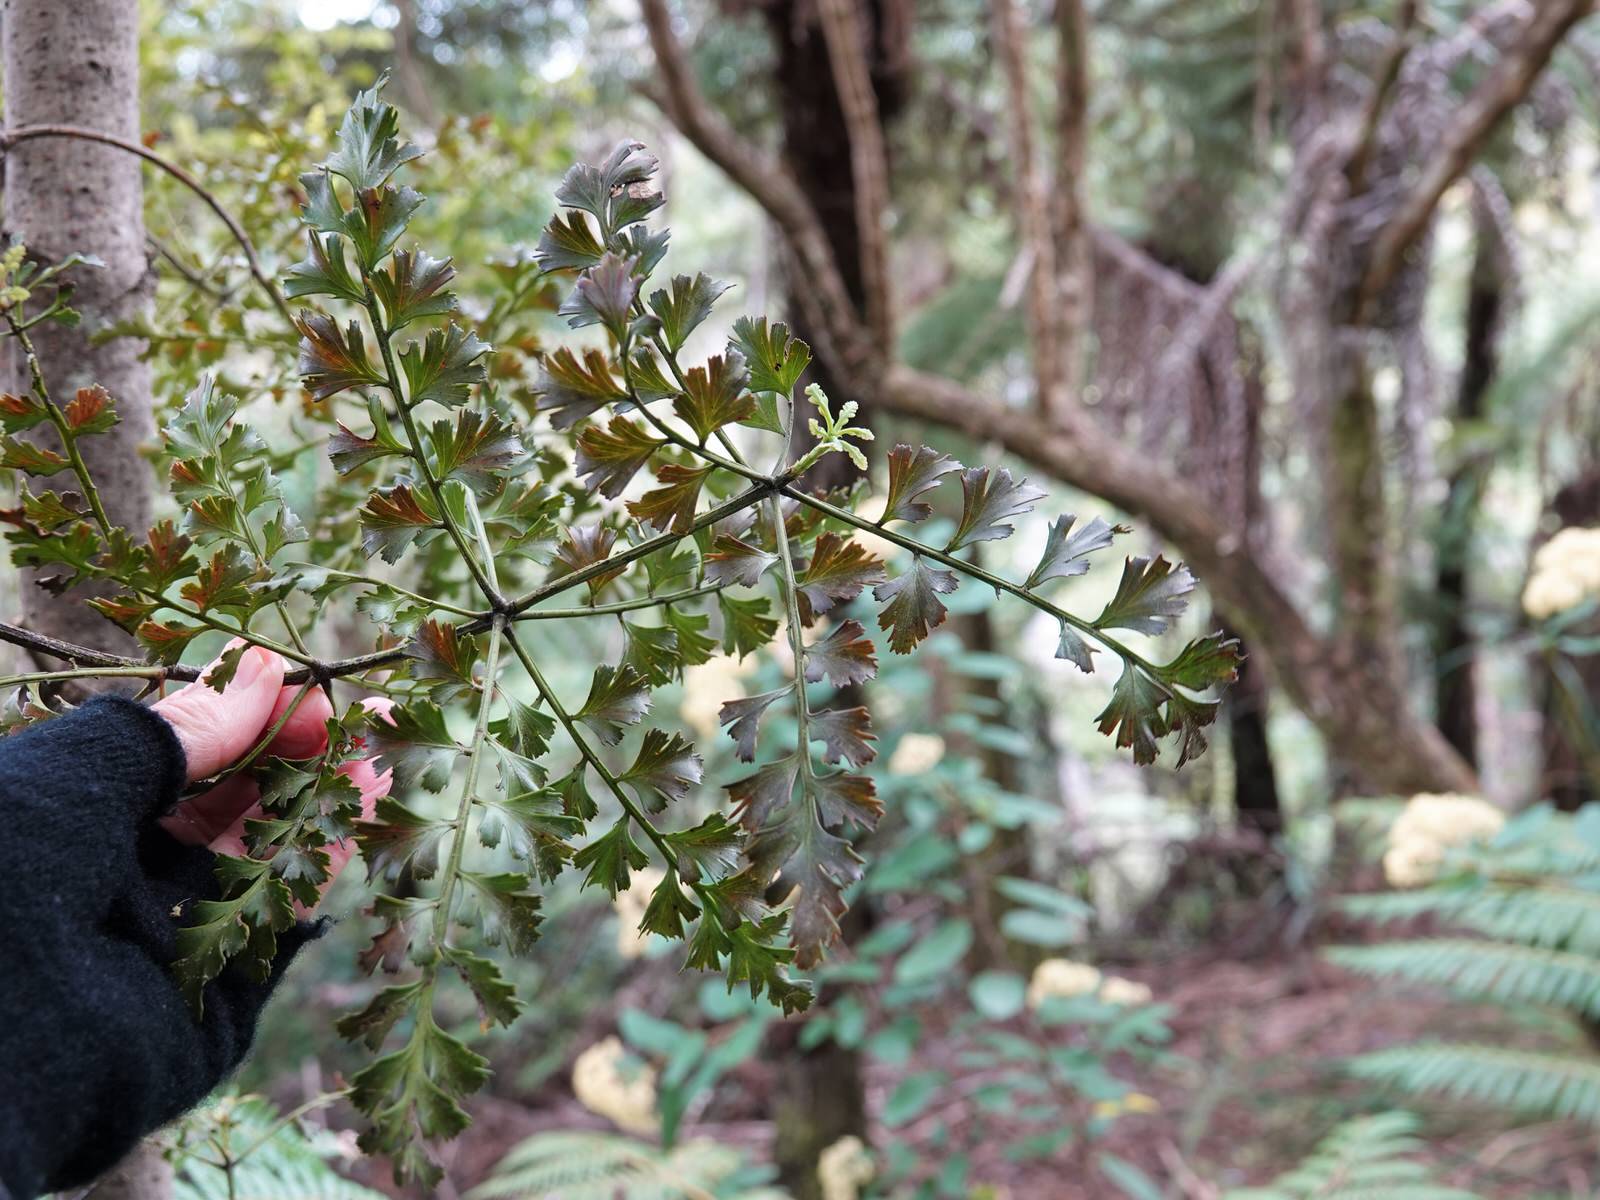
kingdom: Plantae
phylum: Tracheophyta
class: Pinopsida
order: Pinales
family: Phyllocladaceae
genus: Phyllocladus
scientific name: Phyllocladus trichomanoides
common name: Celery pine
